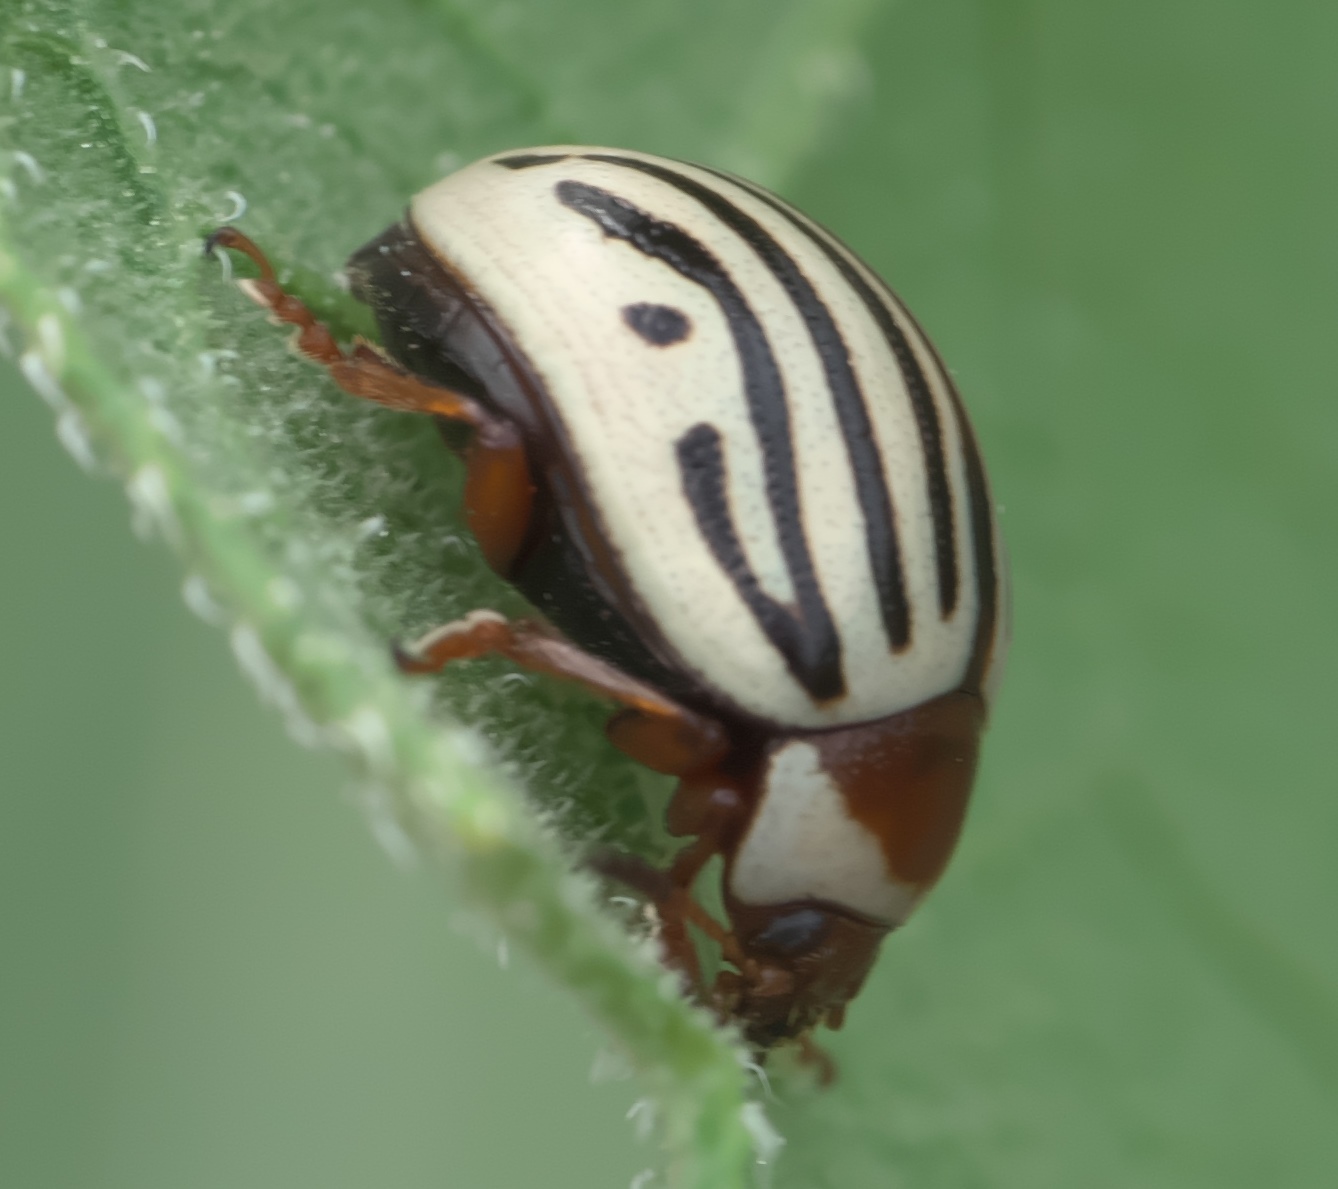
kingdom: Animalia
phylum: Arthropoda
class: Insecta
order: Coleoptera
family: Chrysomelidae
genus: Calligrapha
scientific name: Calligrapha
